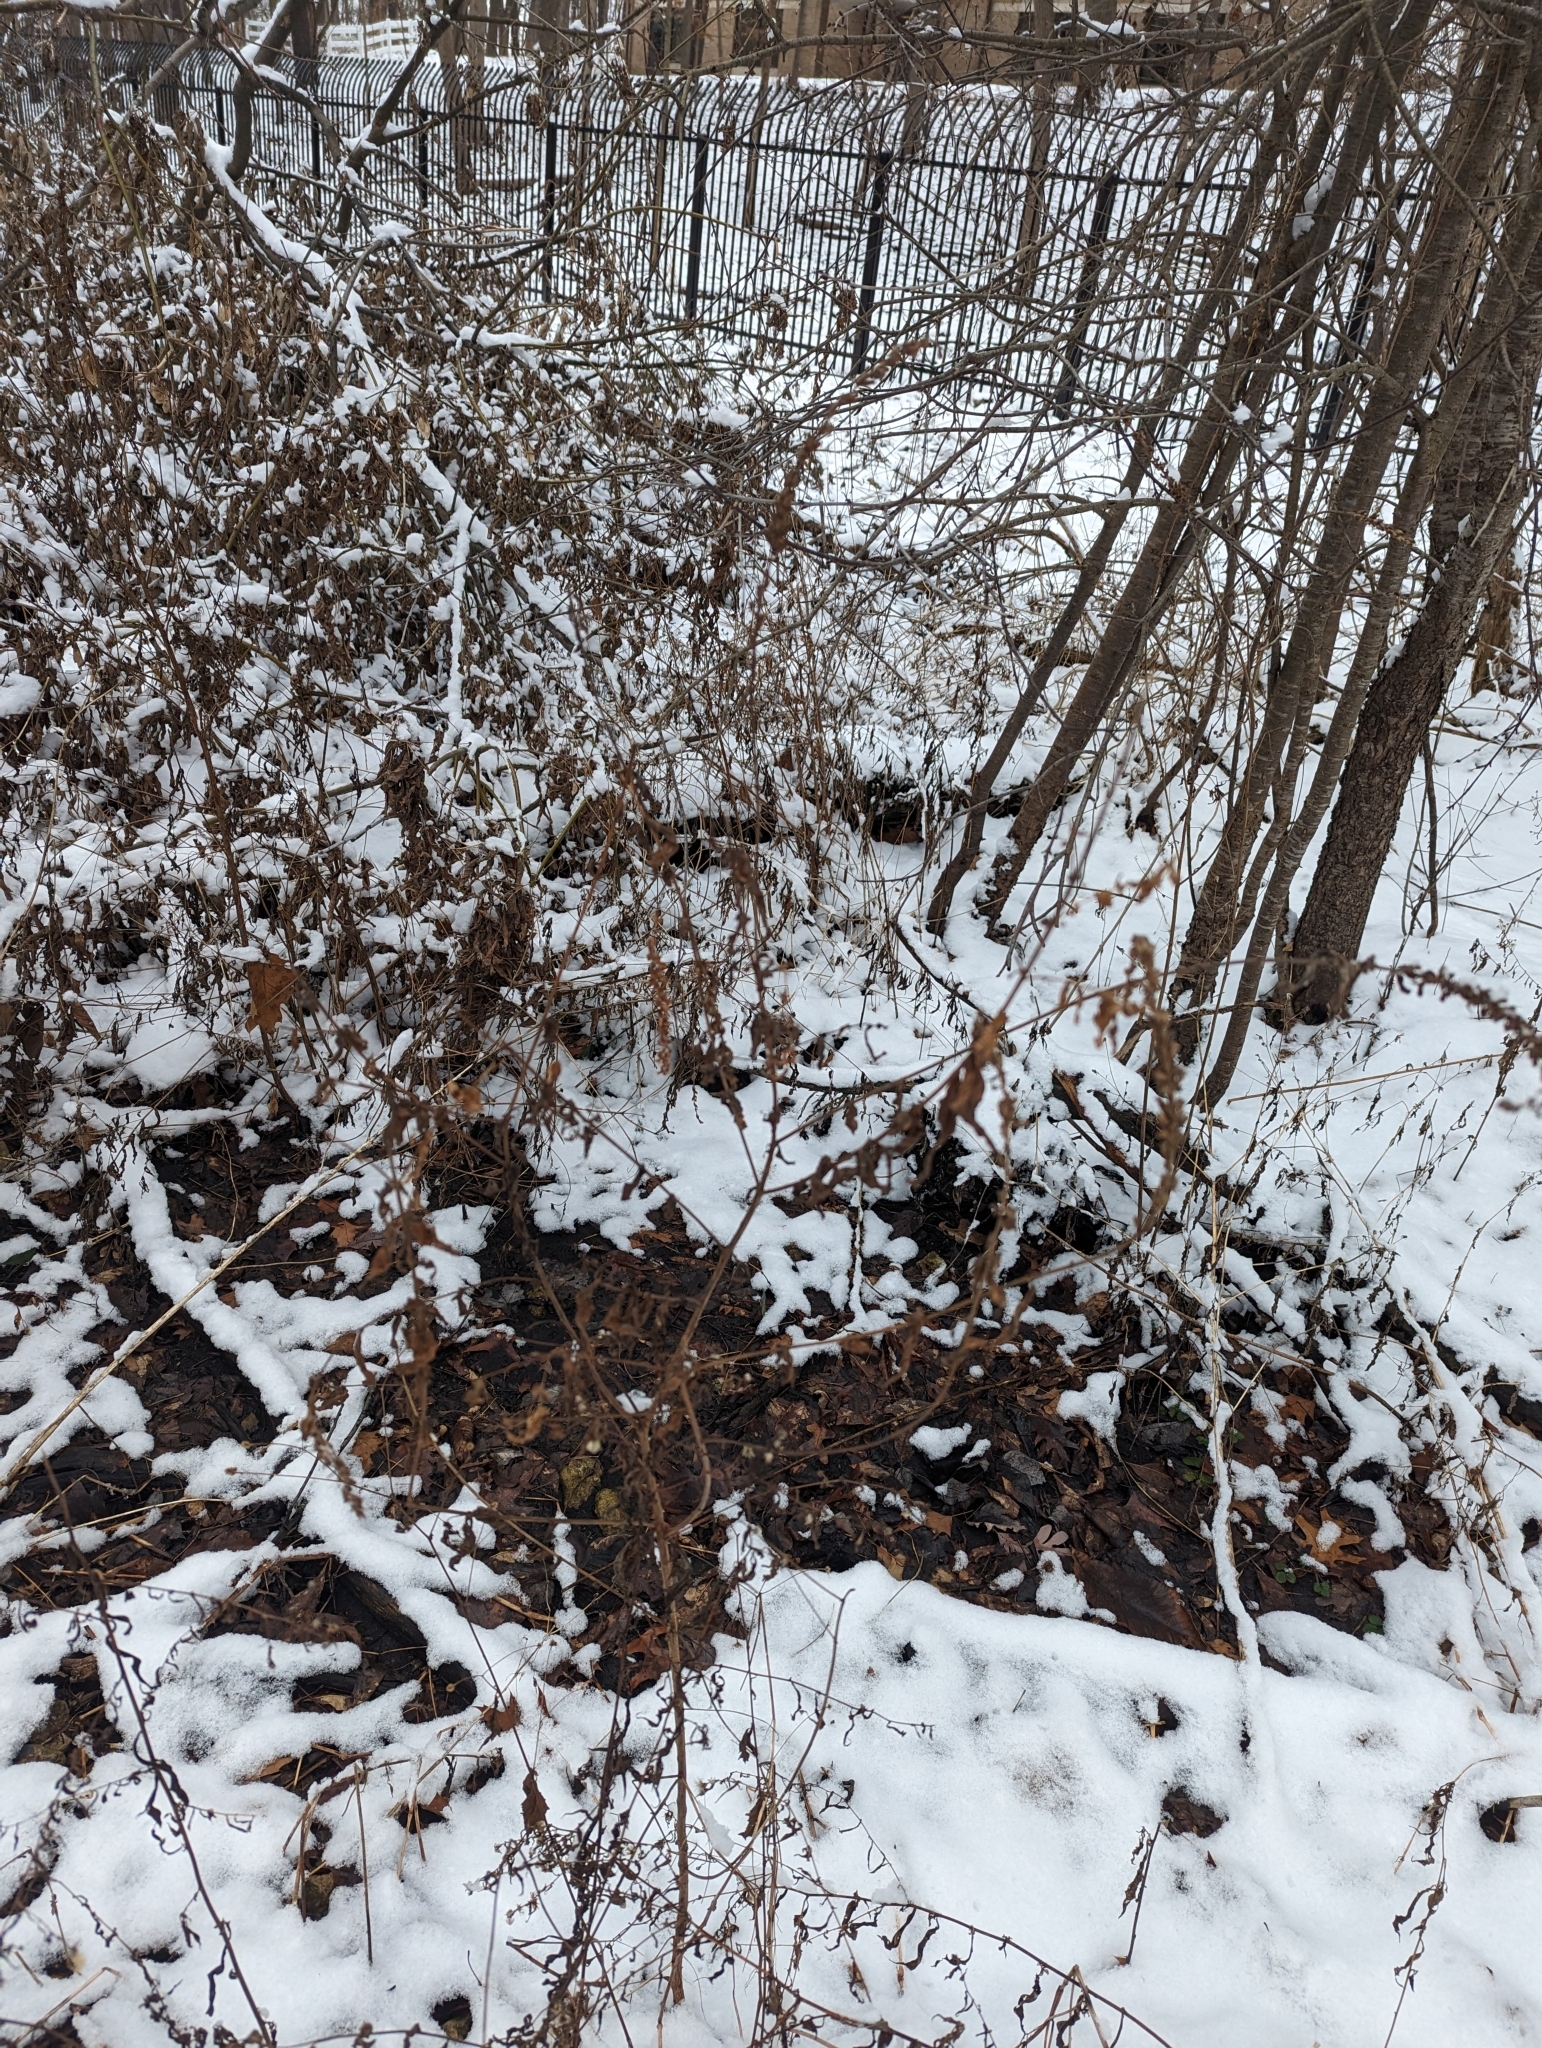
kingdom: Plantae
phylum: Tracheophyta
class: Magnoliopsida
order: Myrtales
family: Lythraceae
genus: Lythrum
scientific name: Lythrum salicaria
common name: Purple loosestrife
